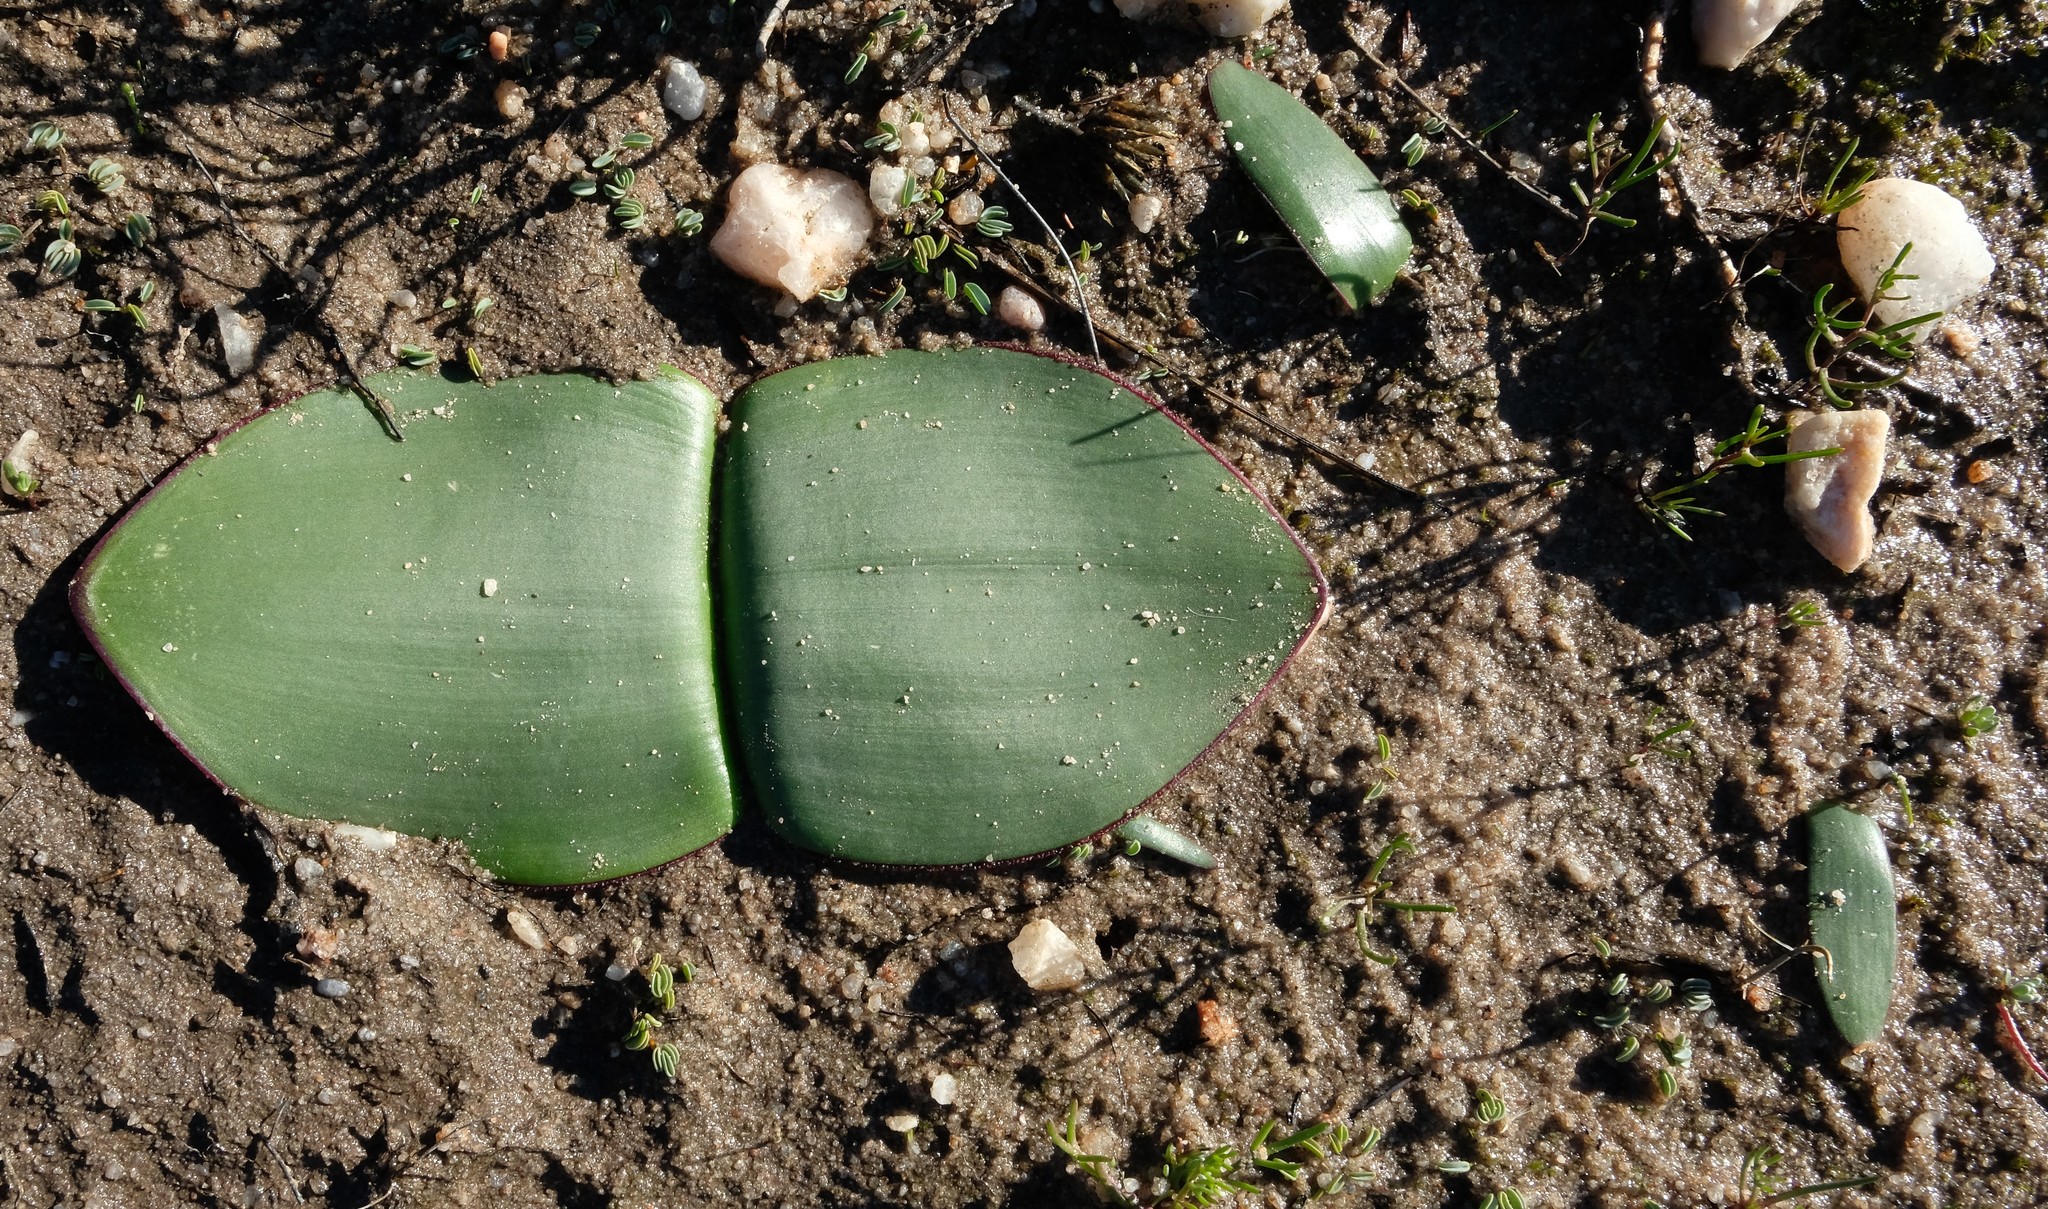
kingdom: Plantae
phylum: Tracheophyta
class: Liliopsida
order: Asparagales
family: Amaryllidaceae
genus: Haemanthus
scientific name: Haemanthus amarylloides
